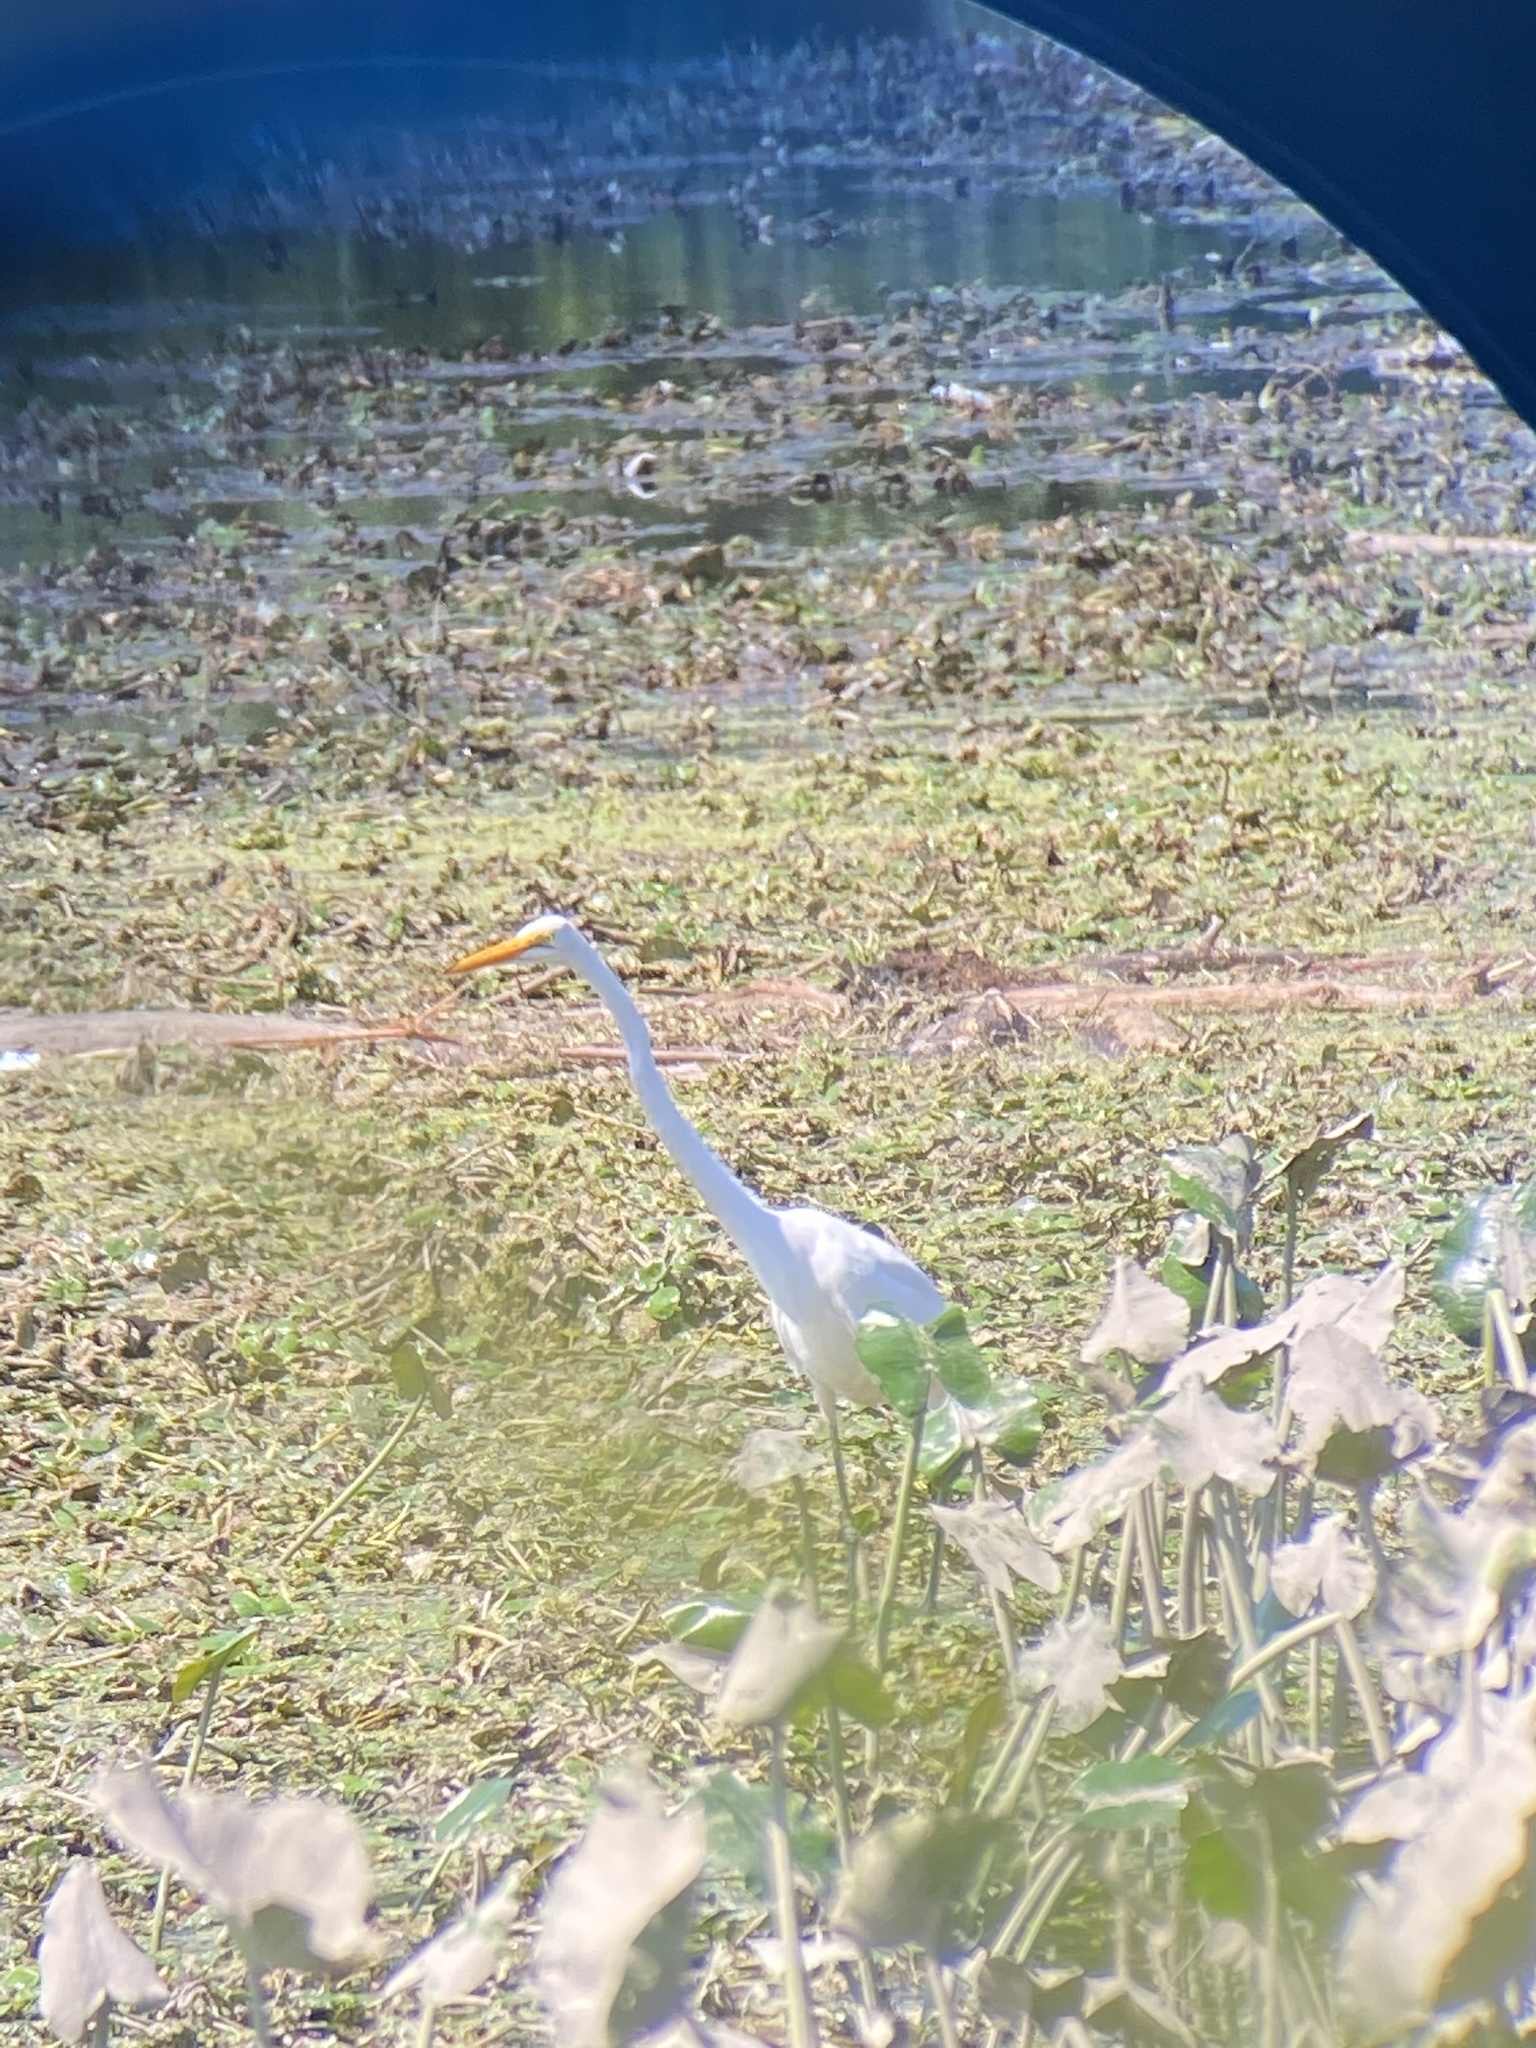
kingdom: Animalia
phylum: Chordata
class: Aves
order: Pelecaniformes
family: Ardeidae
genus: Ardea
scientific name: Ardea alba
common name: Great egret
